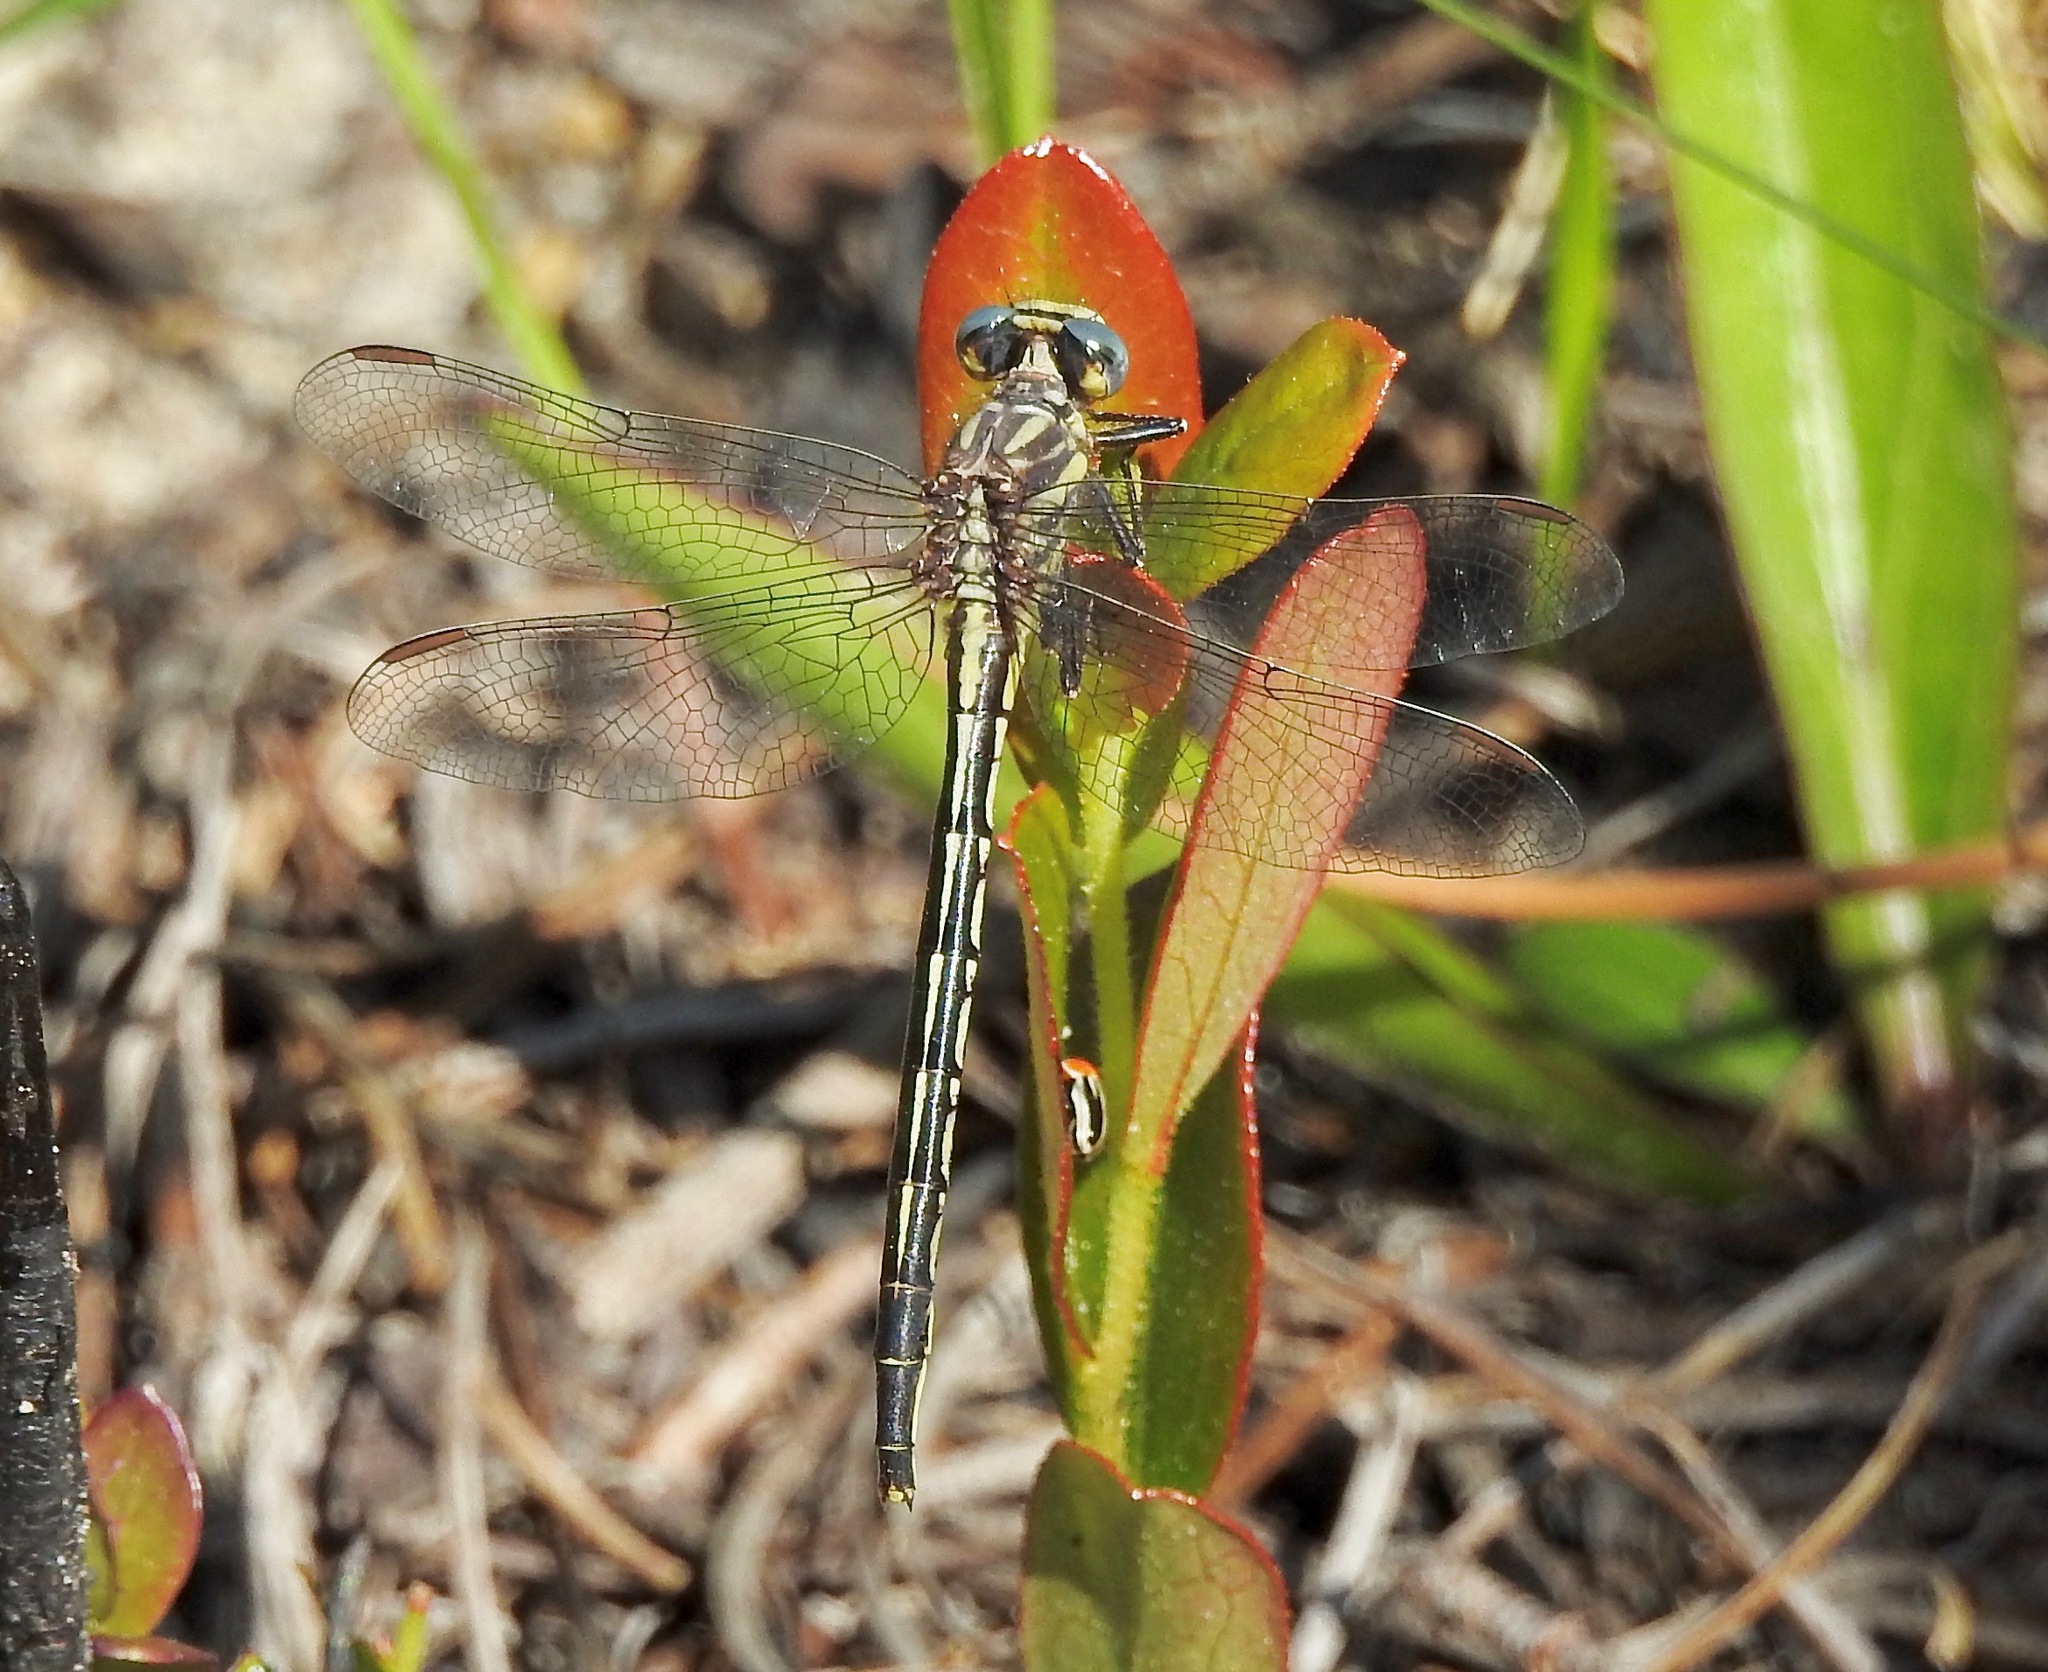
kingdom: Animalia
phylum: Arthropoda
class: Insecta
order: Odonata
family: Gomphidae
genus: Phanogomphus
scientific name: Phanogomphus westfalli
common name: Westfall’s clubtail
